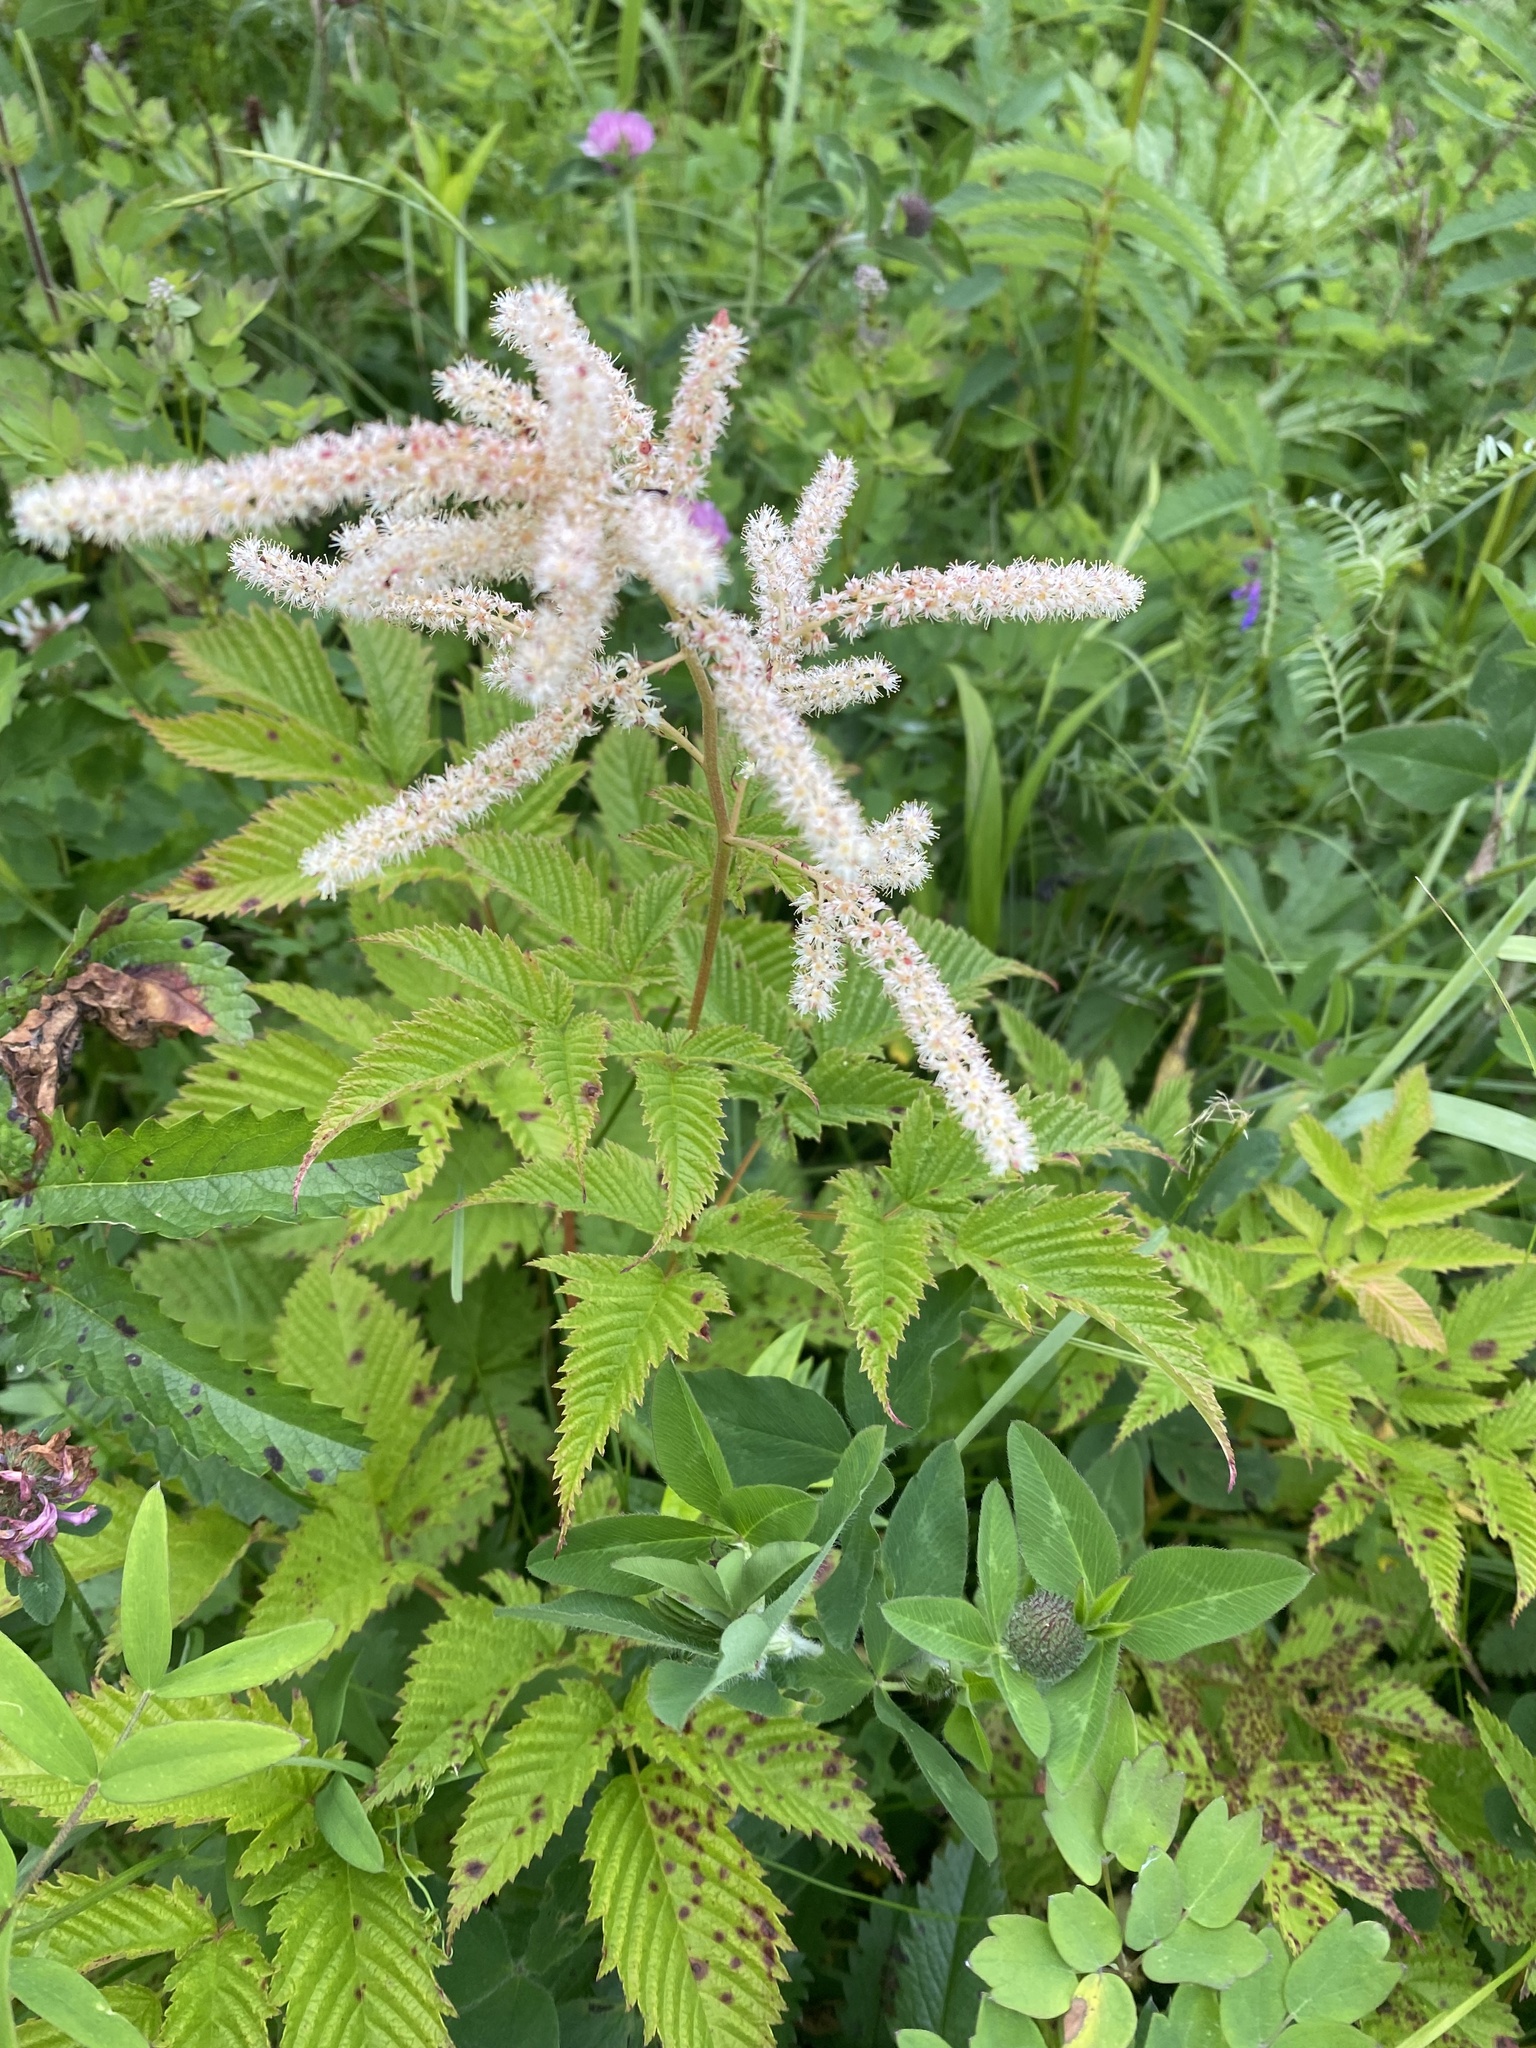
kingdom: Plantae
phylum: Tracheophyta
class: Magnoliopsida
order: Rosales
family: Rosaceae
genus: Aruncus
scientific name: Aruncus dioicus
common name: Buck's-beard
